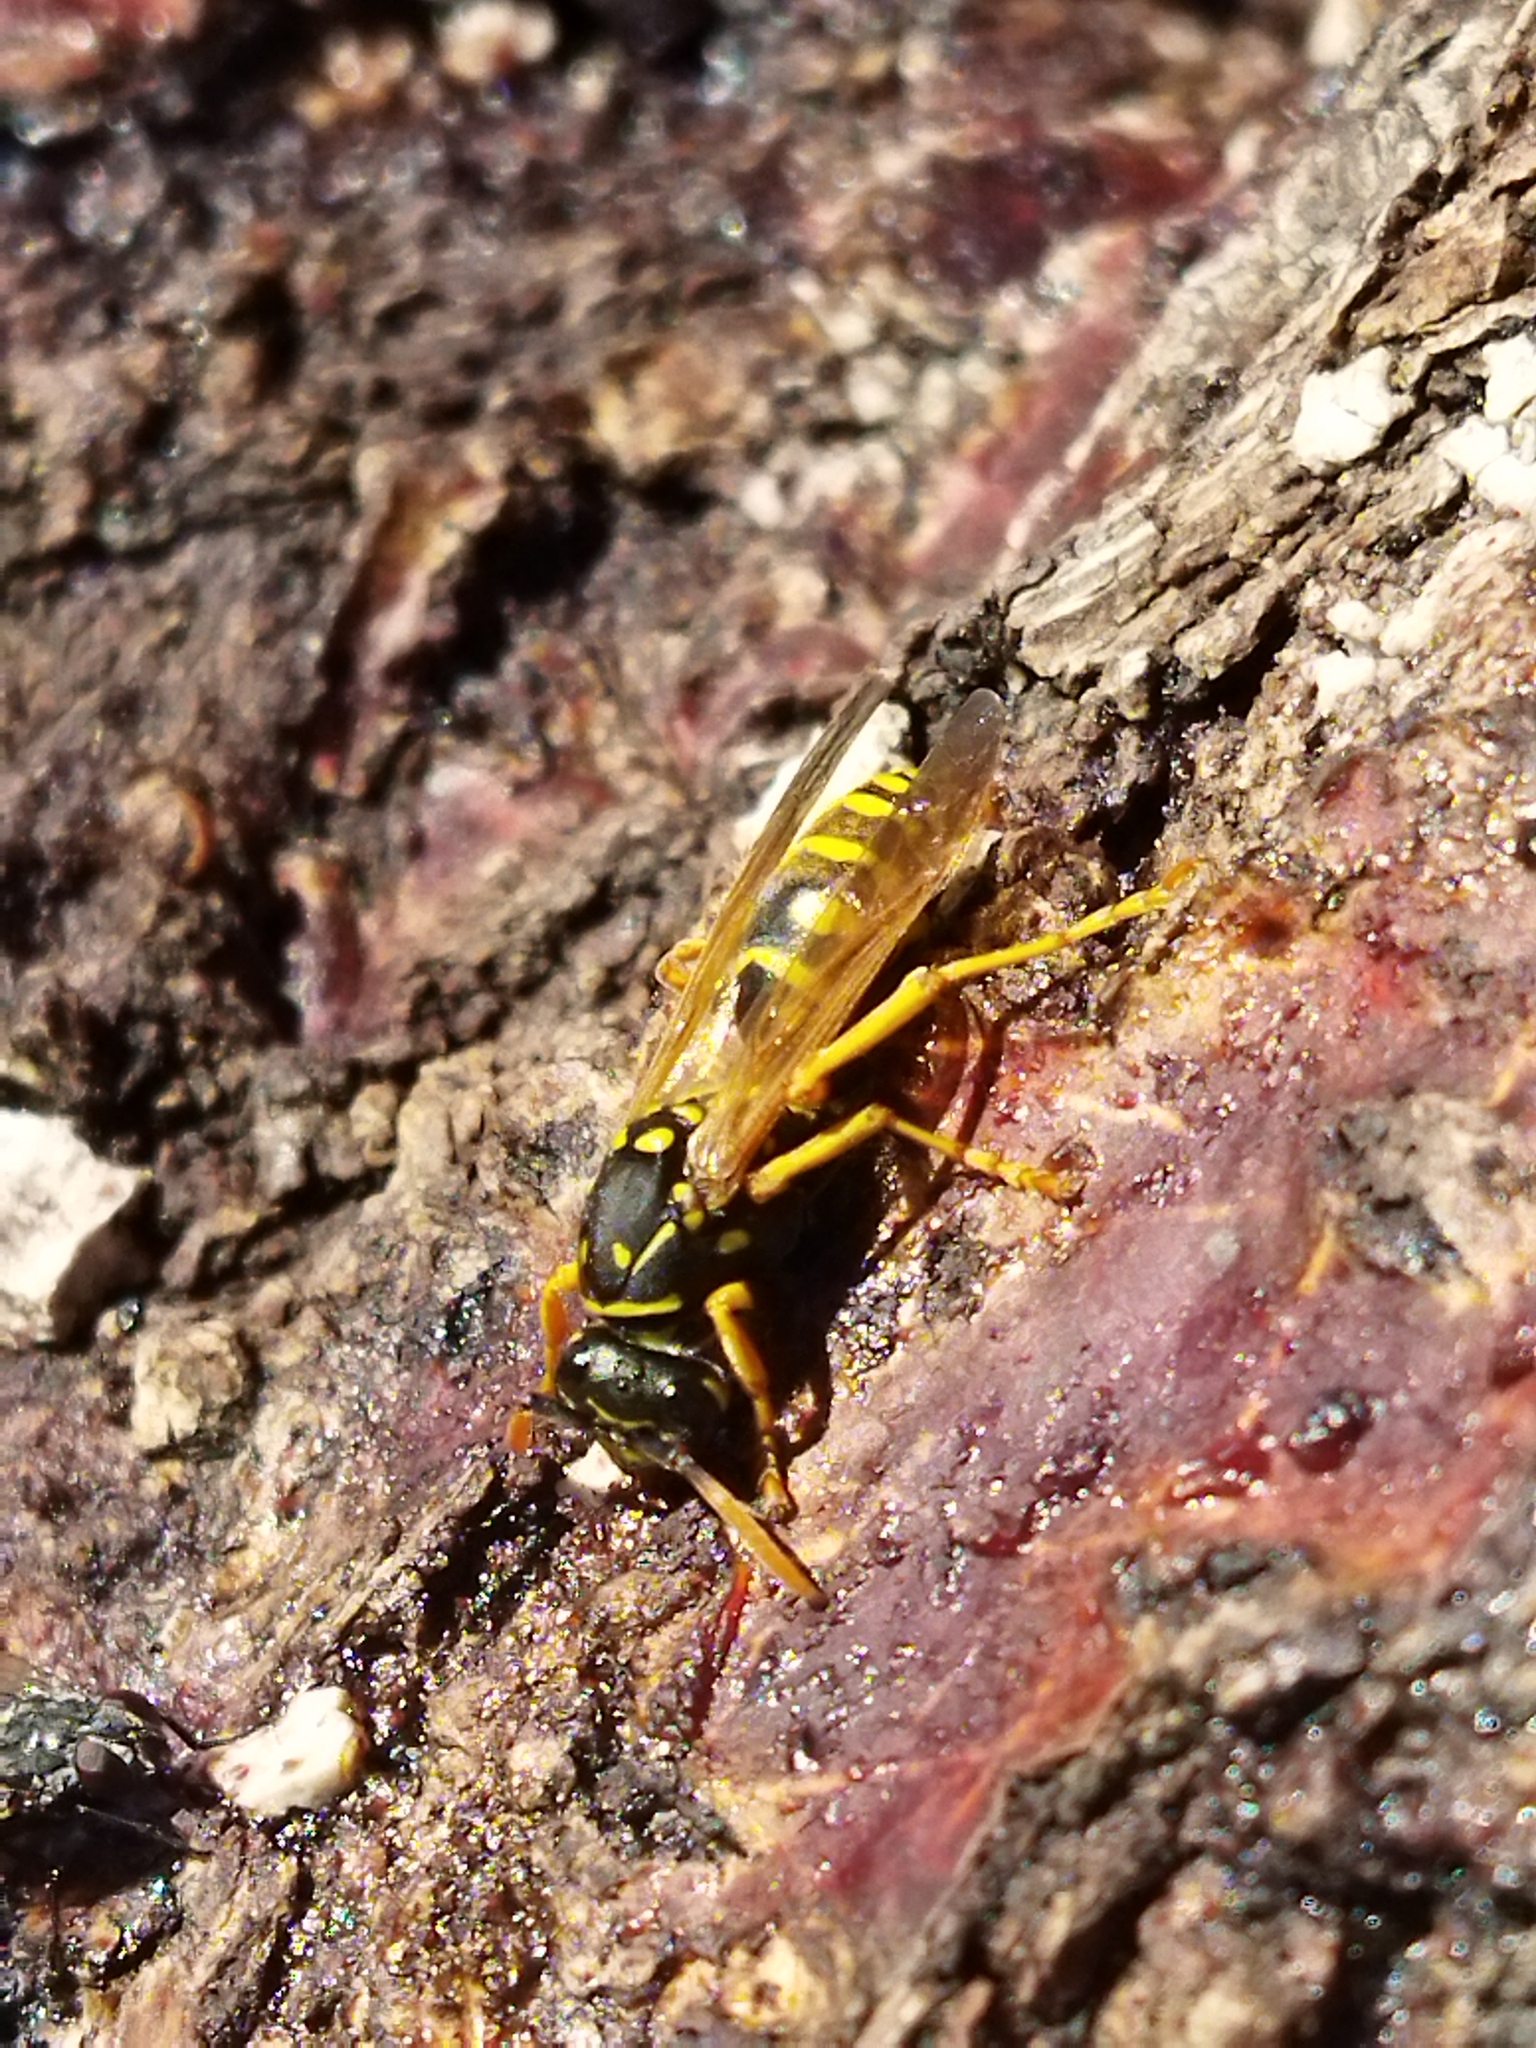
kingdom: Animalia
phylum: Arthropoda
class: Insecta
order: Hymenoptera
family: Eumenidae
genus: Polistes
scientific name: Polistes dominula
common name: Paper wasp
